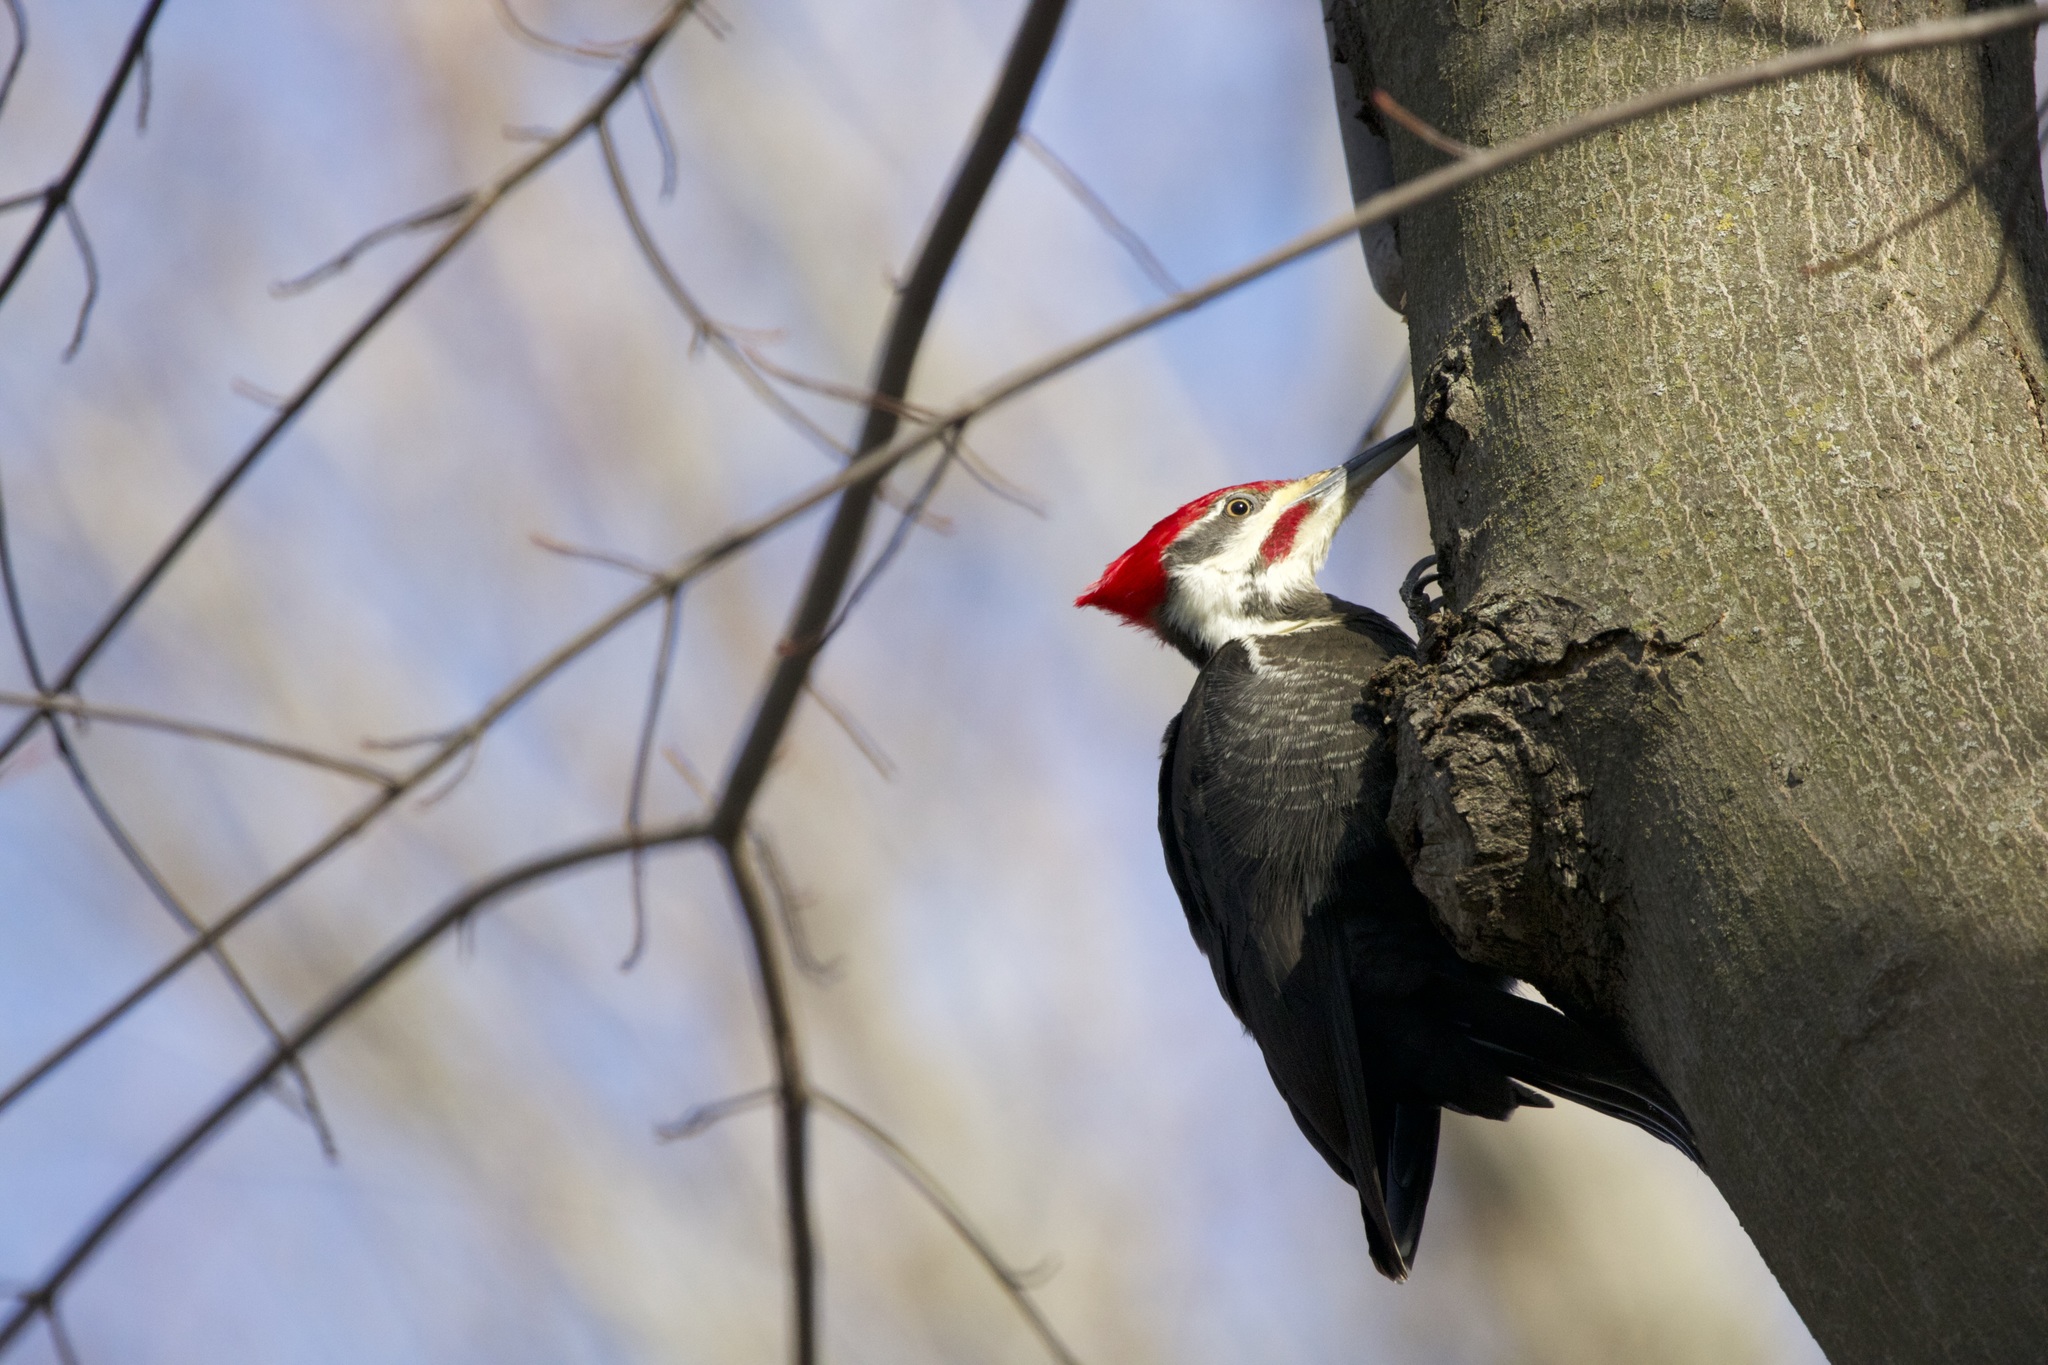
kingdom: Animalia
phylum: Chordata
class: Aves
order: Piciformes
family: Picidae
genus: Dryocopus
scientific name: Dryocopus pileatus
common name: Pileated woodpecker
